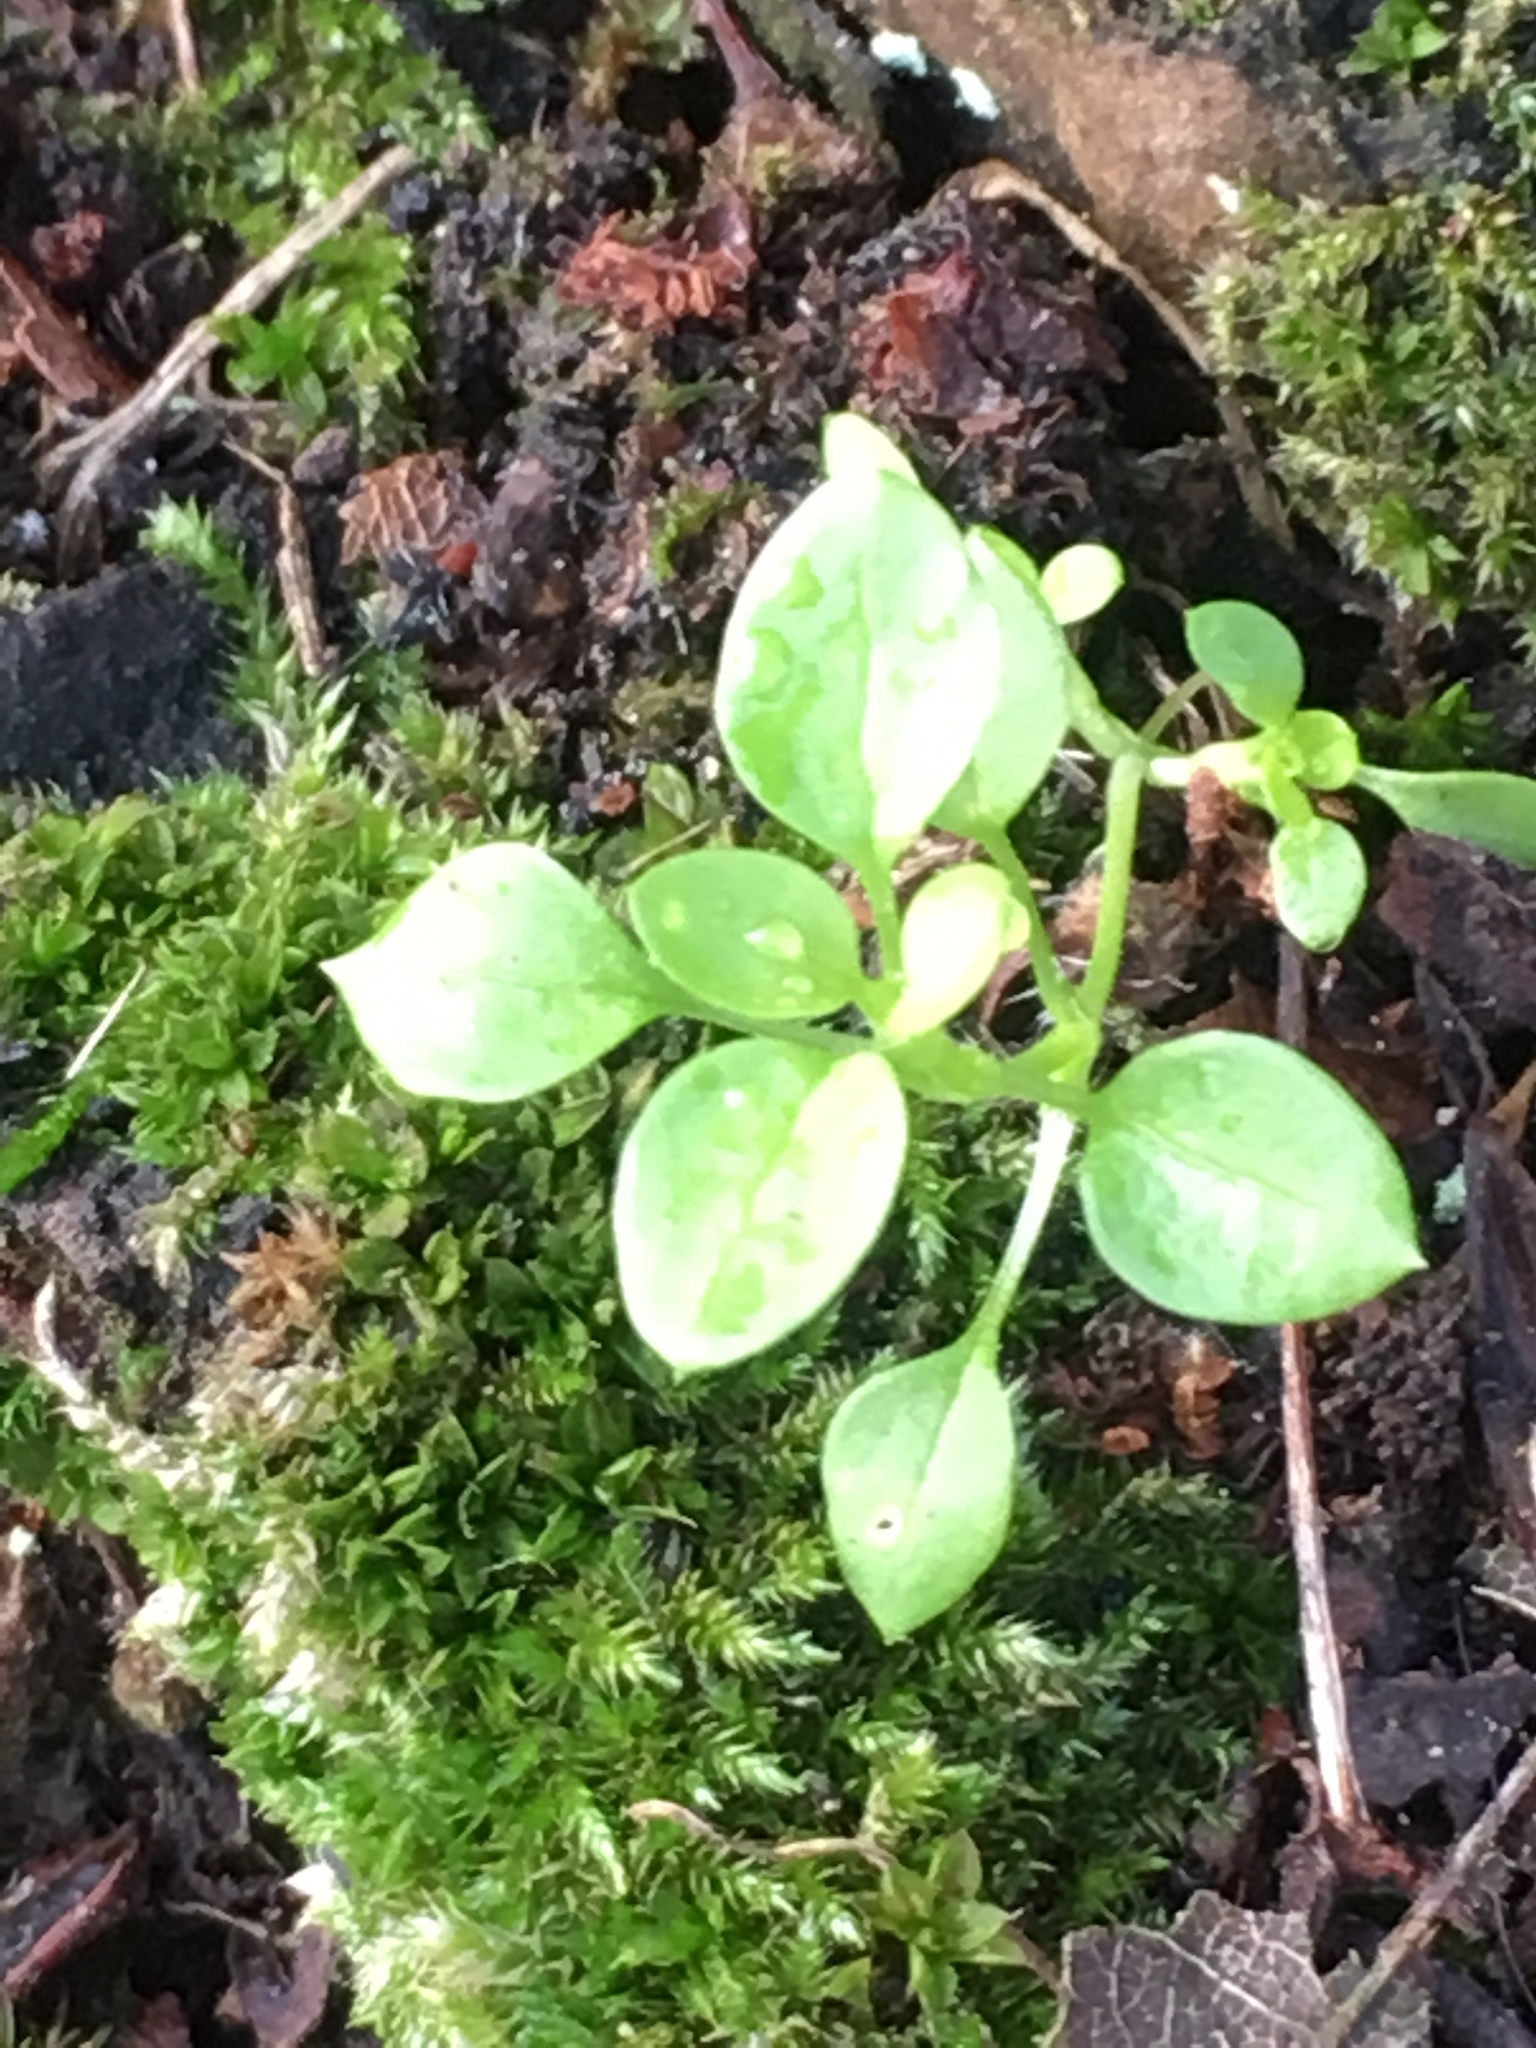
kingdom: Plantae
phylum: Tracheophyta
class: Magnoliopsida
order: Caryophyllales
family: Caryophyllaceae
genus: Stellaria
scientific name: Stellaria media
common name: Common chickweed
